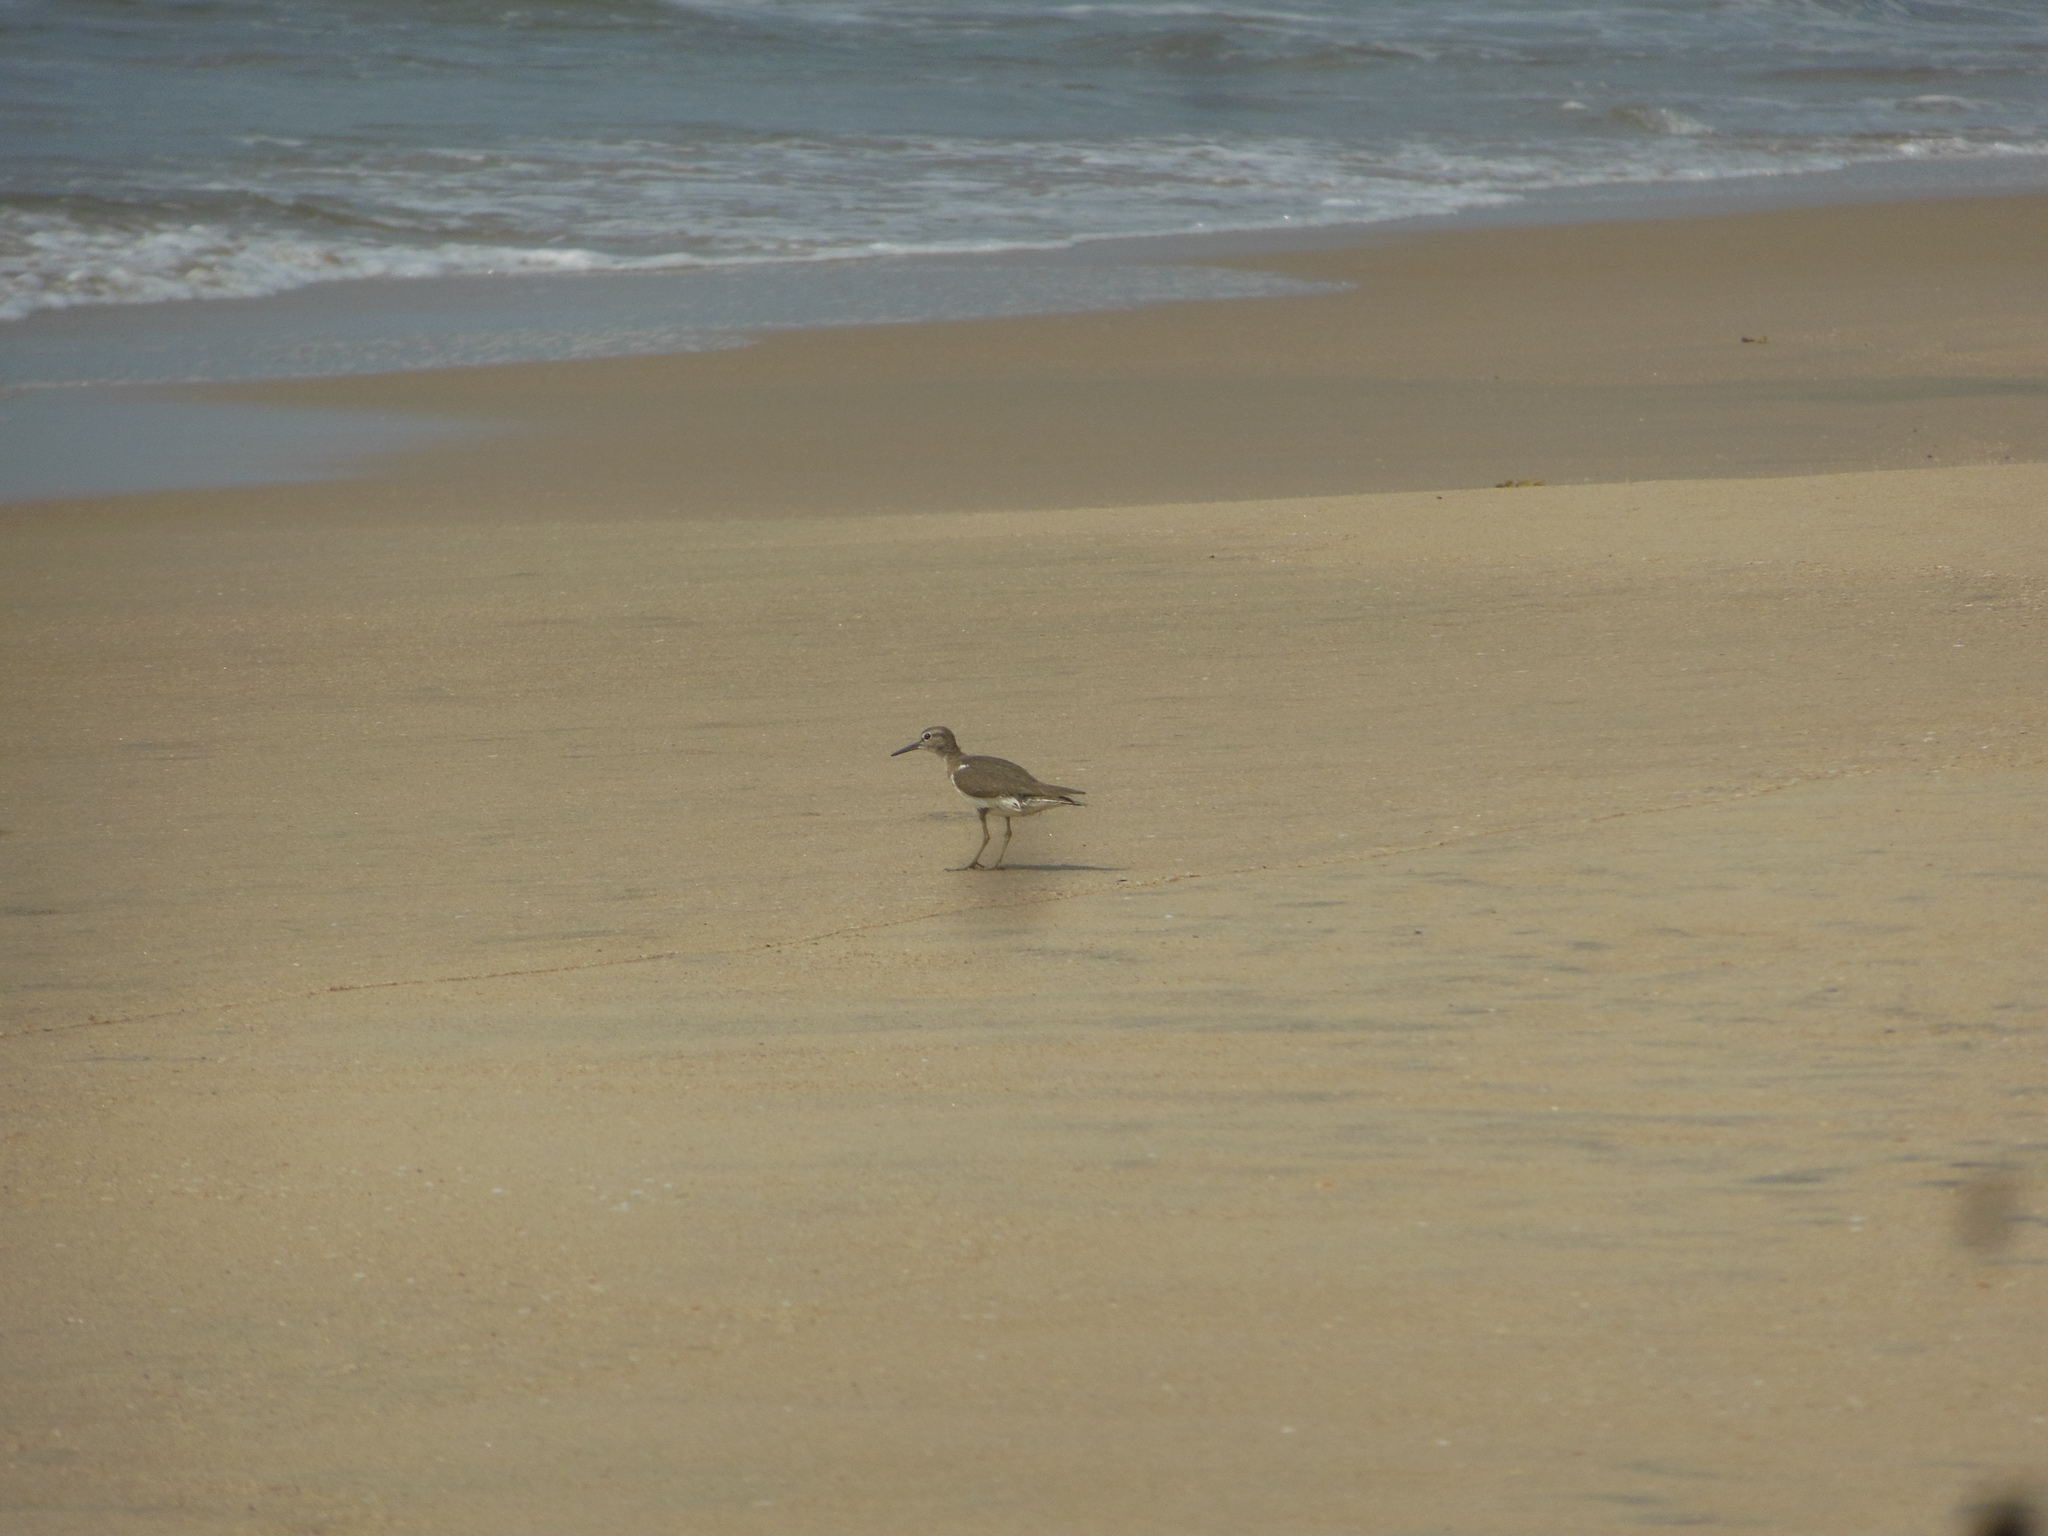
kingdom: Animalia
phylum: Chordata
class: Aves
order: Charadriiformes
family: Scolopacidae
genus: Actitis
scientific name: Actitis hypoleucos
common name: Common sandpiper
